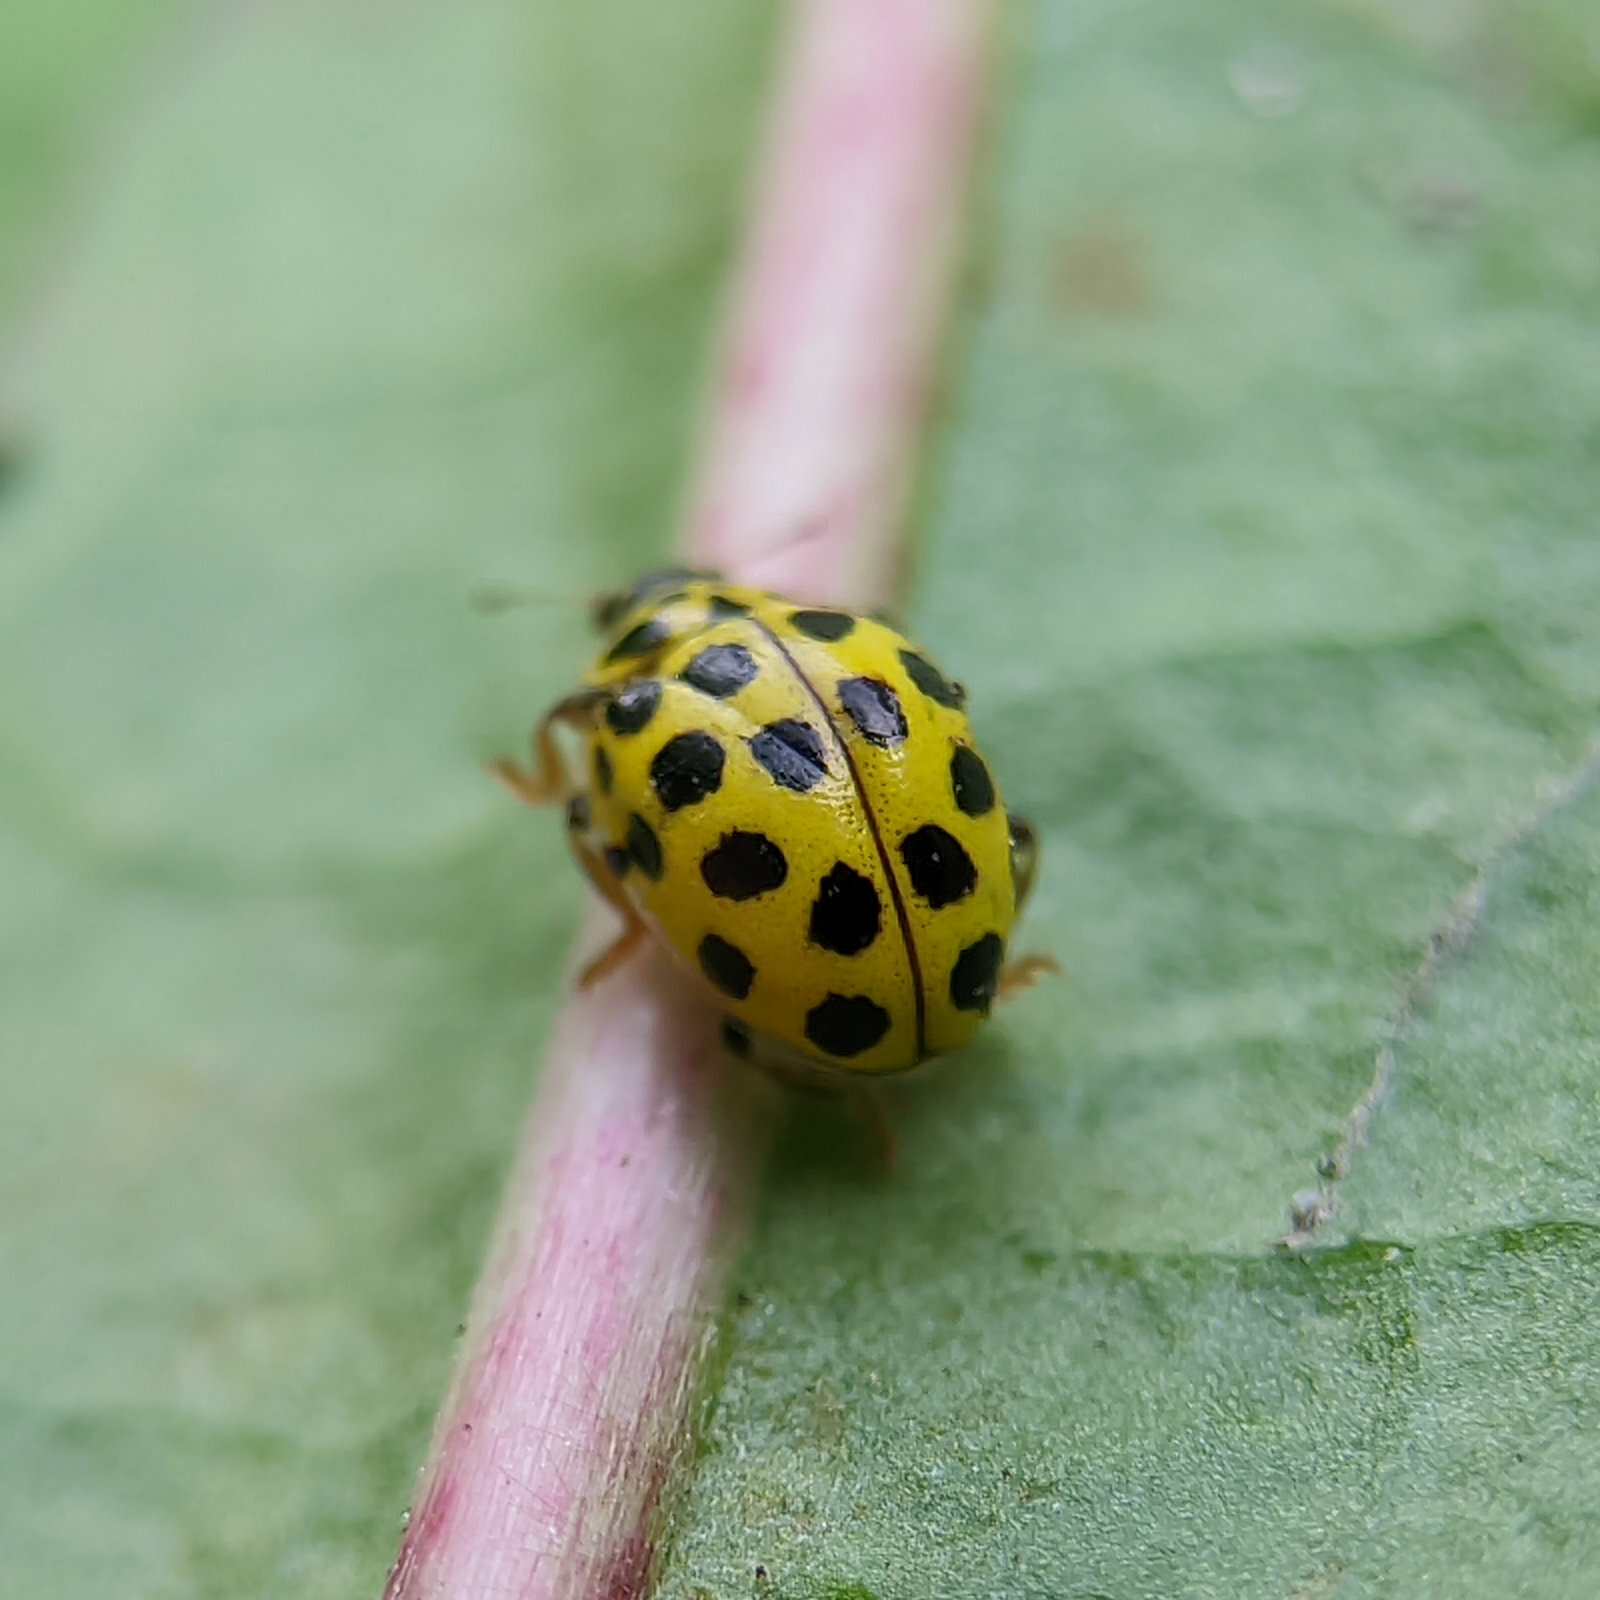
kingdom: Animalia
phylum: Arthropoda
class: Insecta
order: Coleoptera
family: Coccinellidae
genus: Psyllobora
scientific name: Psyllobora vigintiduopunctata
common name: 22-spot ladybird
